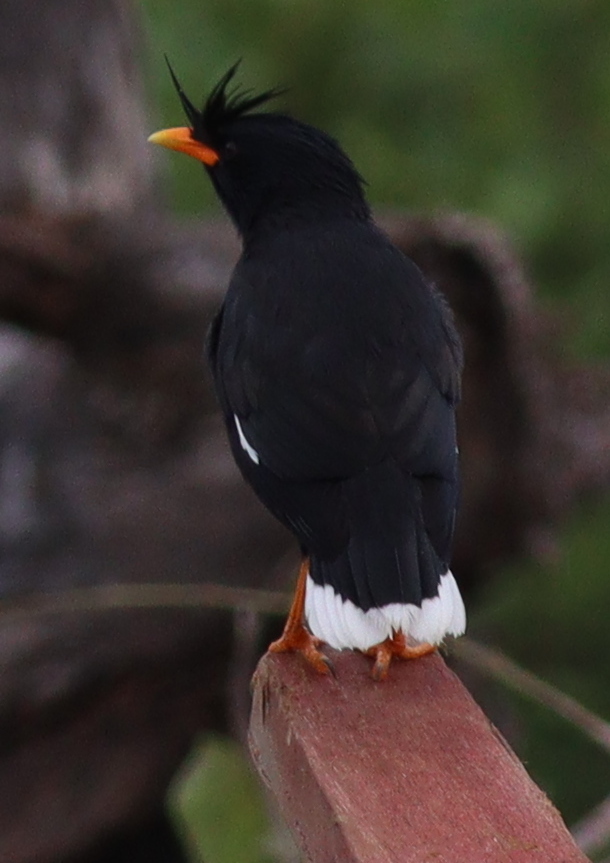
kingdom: Animalia
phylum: Chordata
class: Aves
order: Passeriformes
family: Sturnidae
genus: Acridotheres
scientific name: Acridotheres grandis
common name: Great myna
